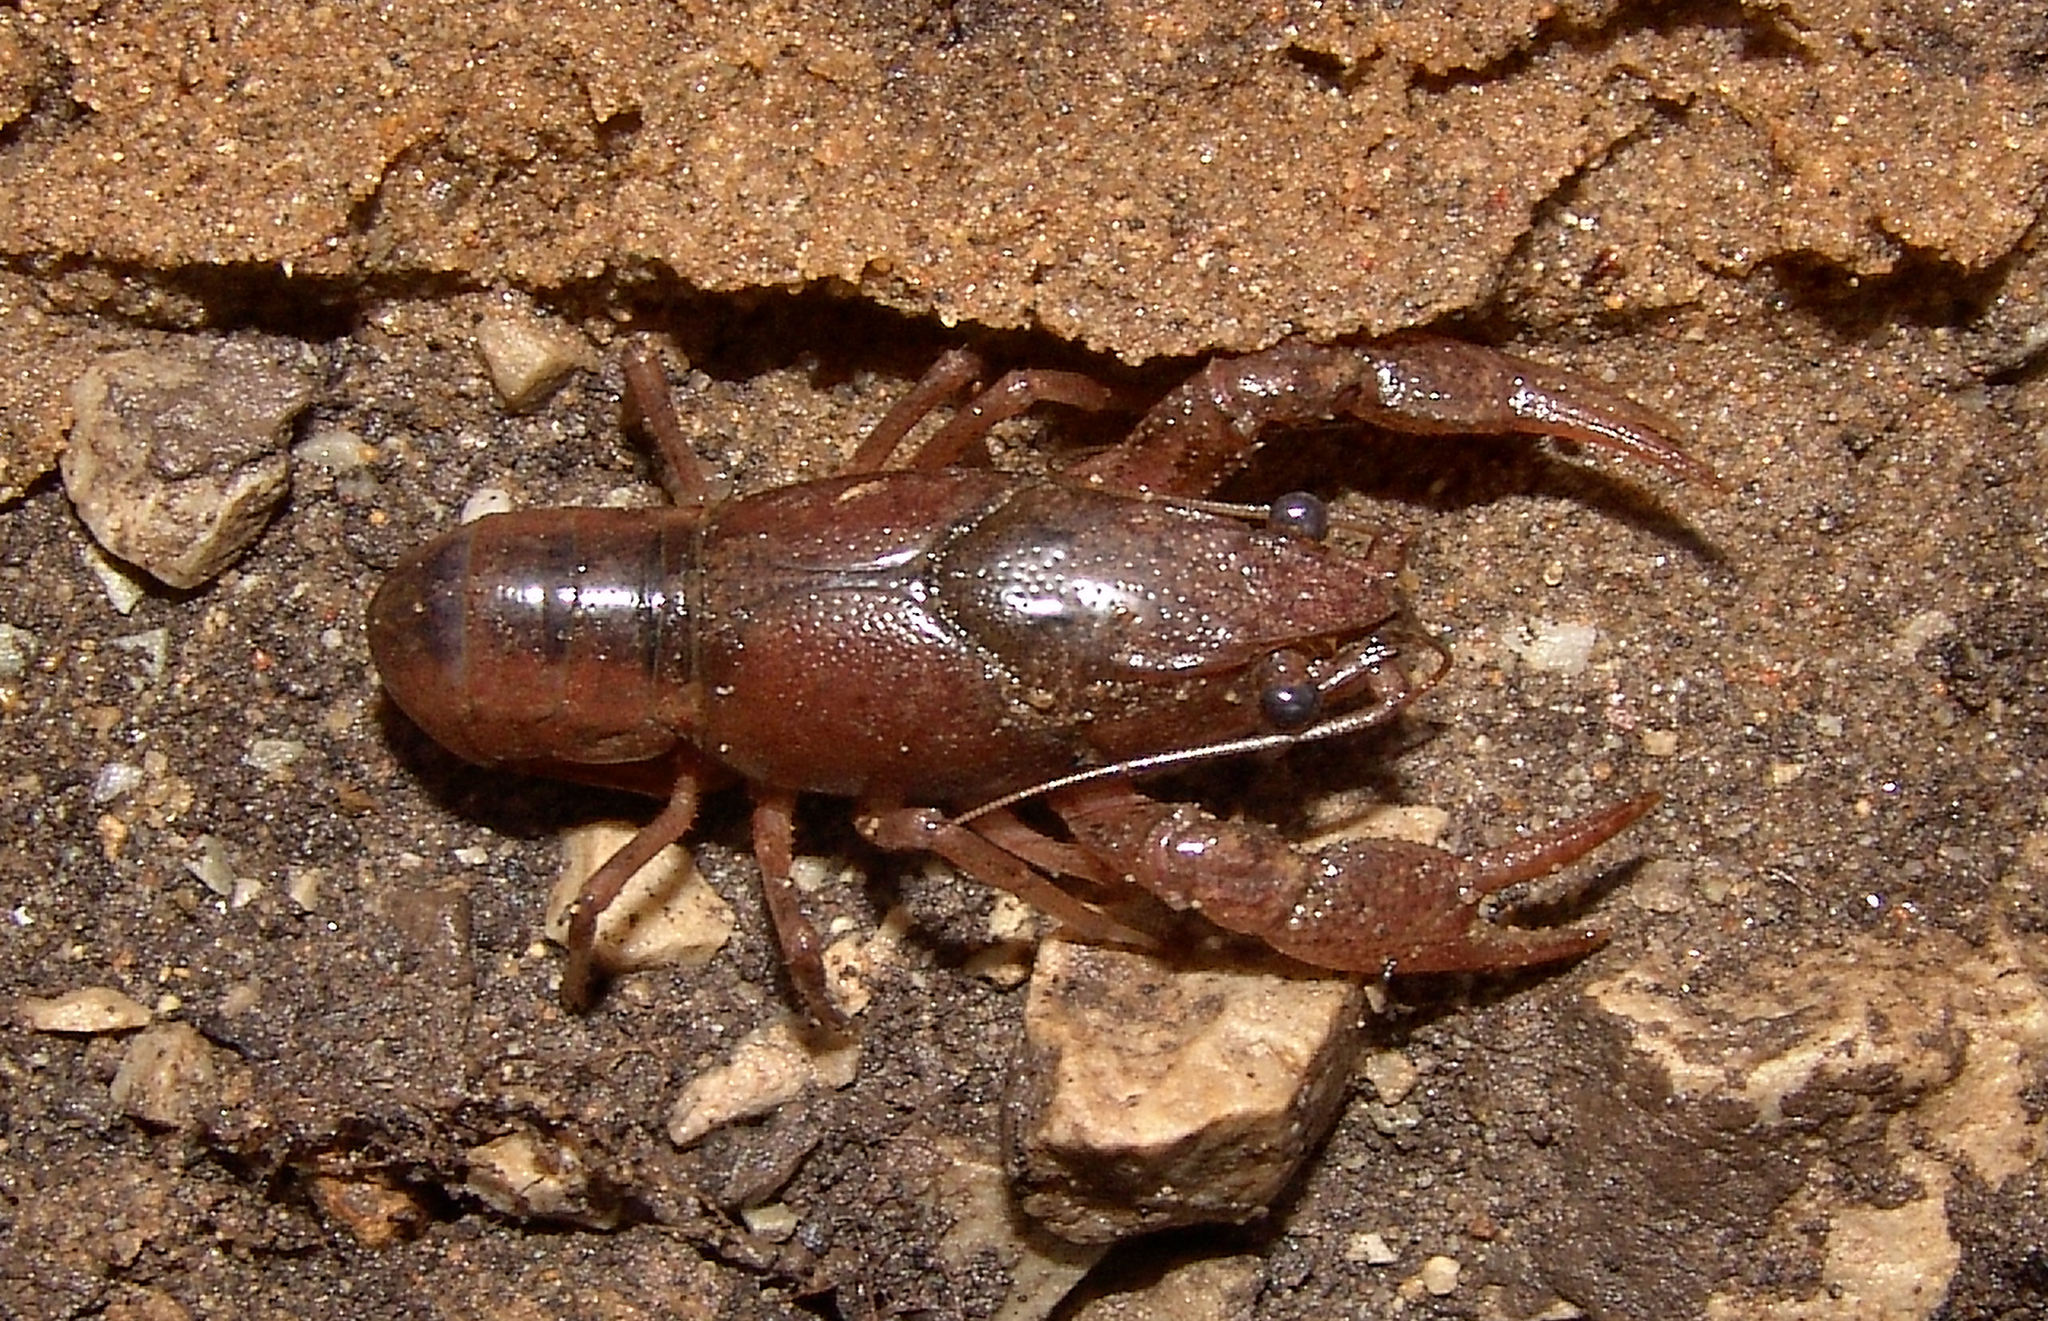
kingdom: Animalia
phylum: Arthropoda
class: Malacostraca
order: Decapoda
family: Cambaridae
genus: Procambarus
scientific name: Procambarus viaeviridis
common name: Vernal crayfish
